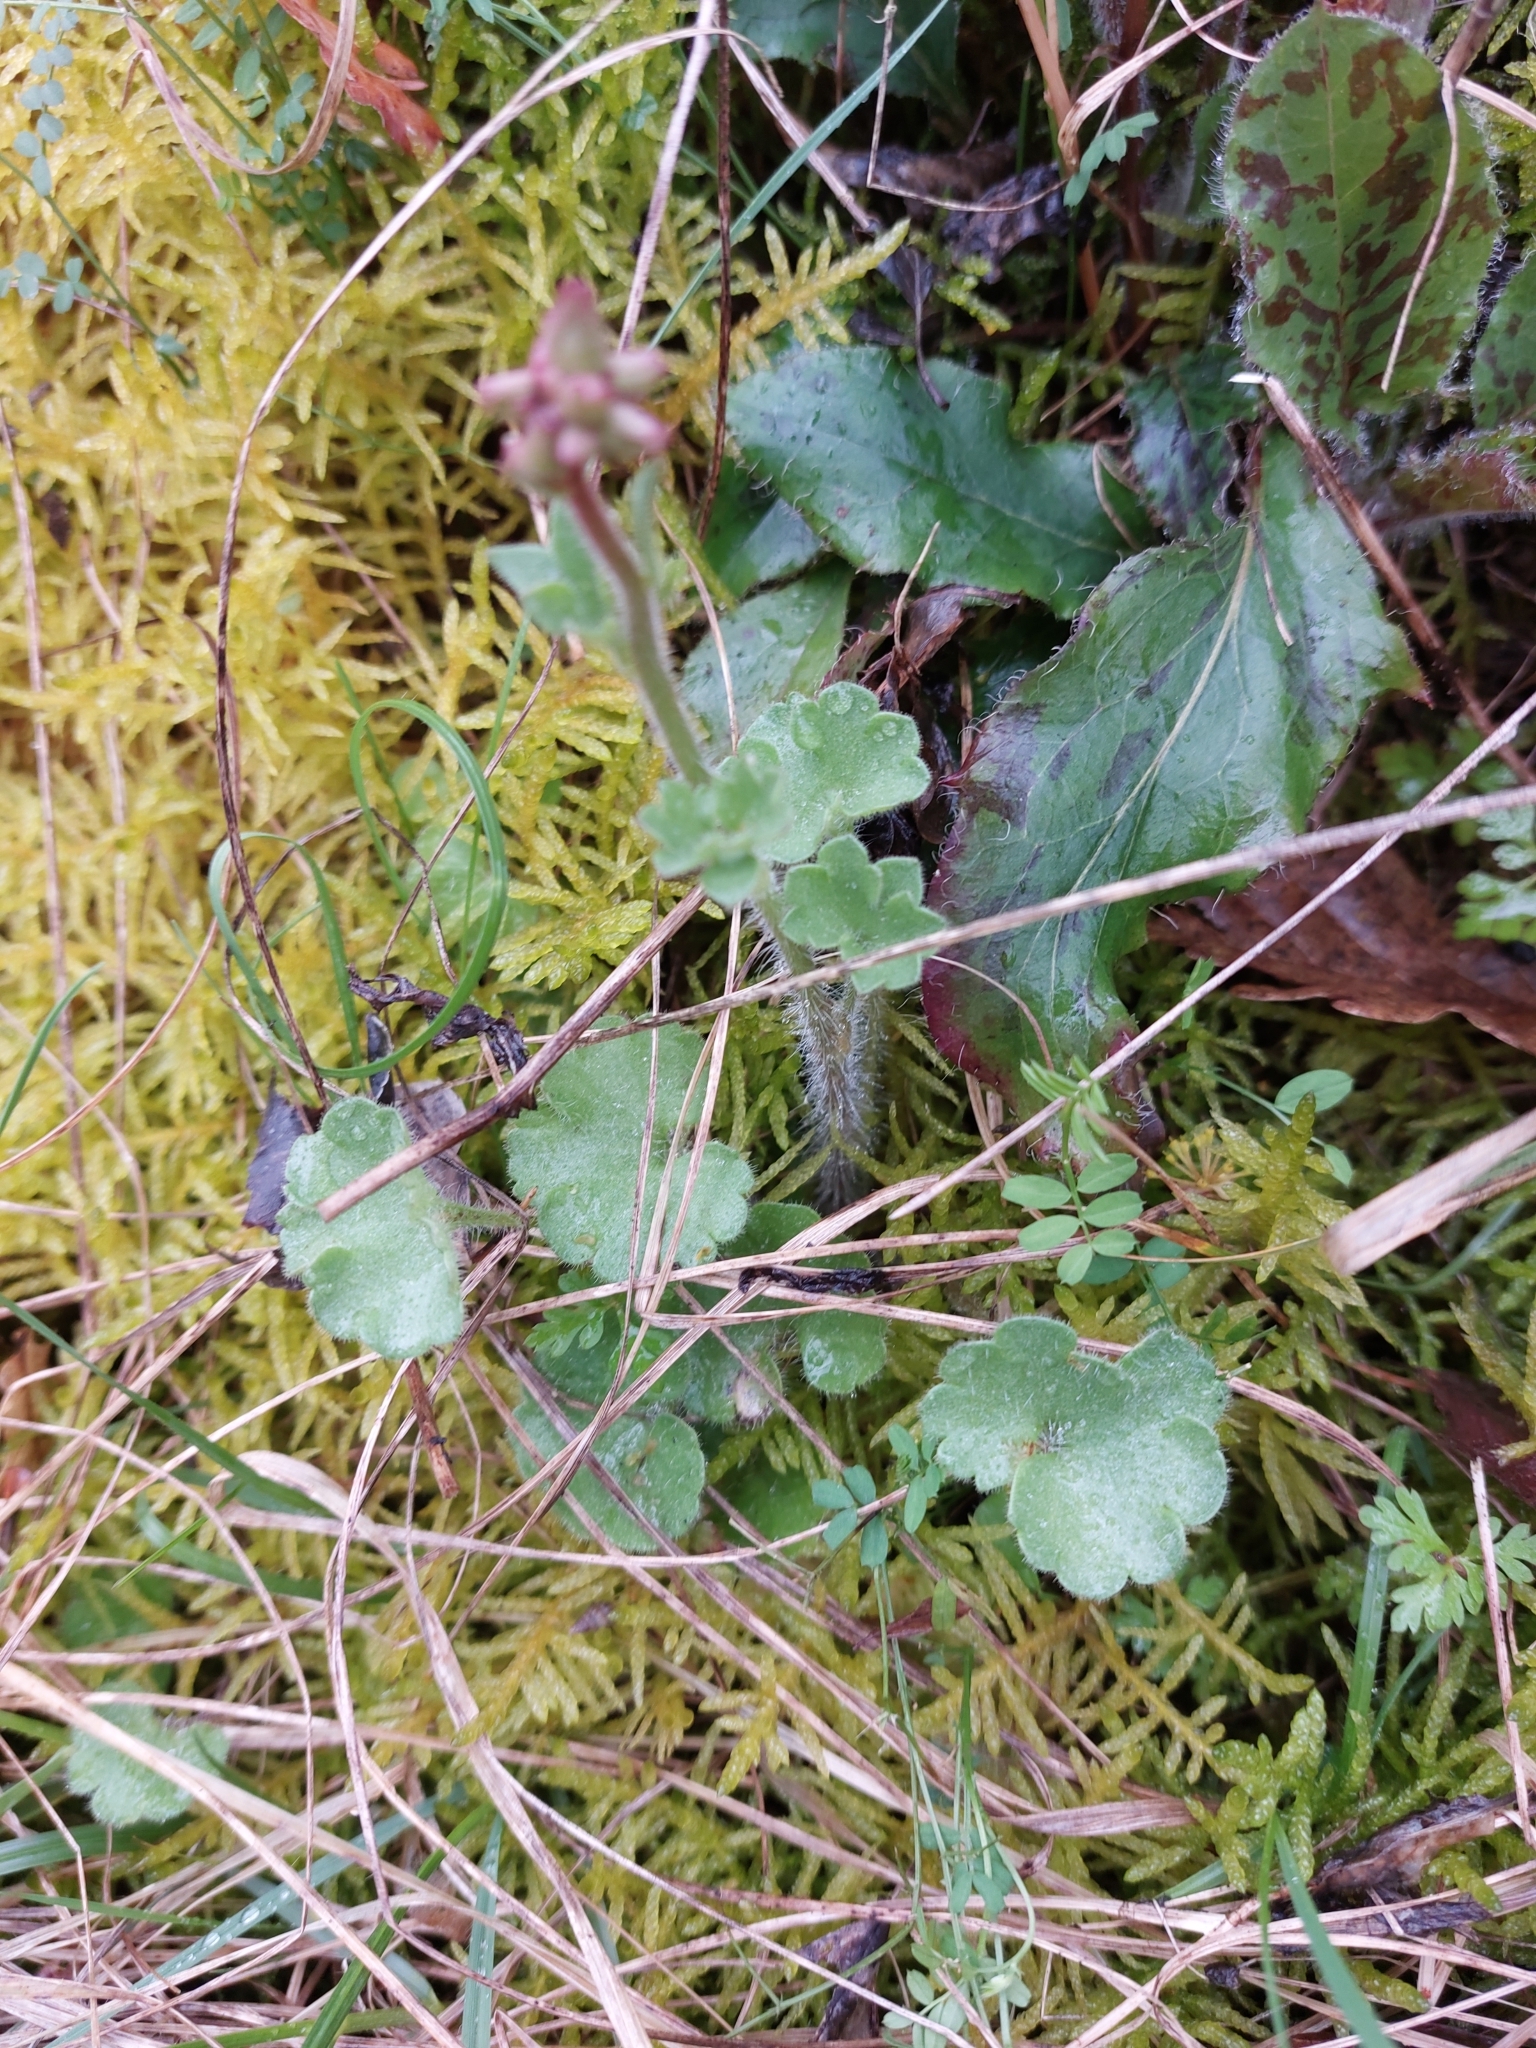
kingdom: Plantae
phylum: Tracheophyta
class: Magnoliopsida
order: Saxifragales
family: Saxifragaceae
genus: Saxifraga
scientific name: Saxifraga granulata
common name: Meadow saxifrage
